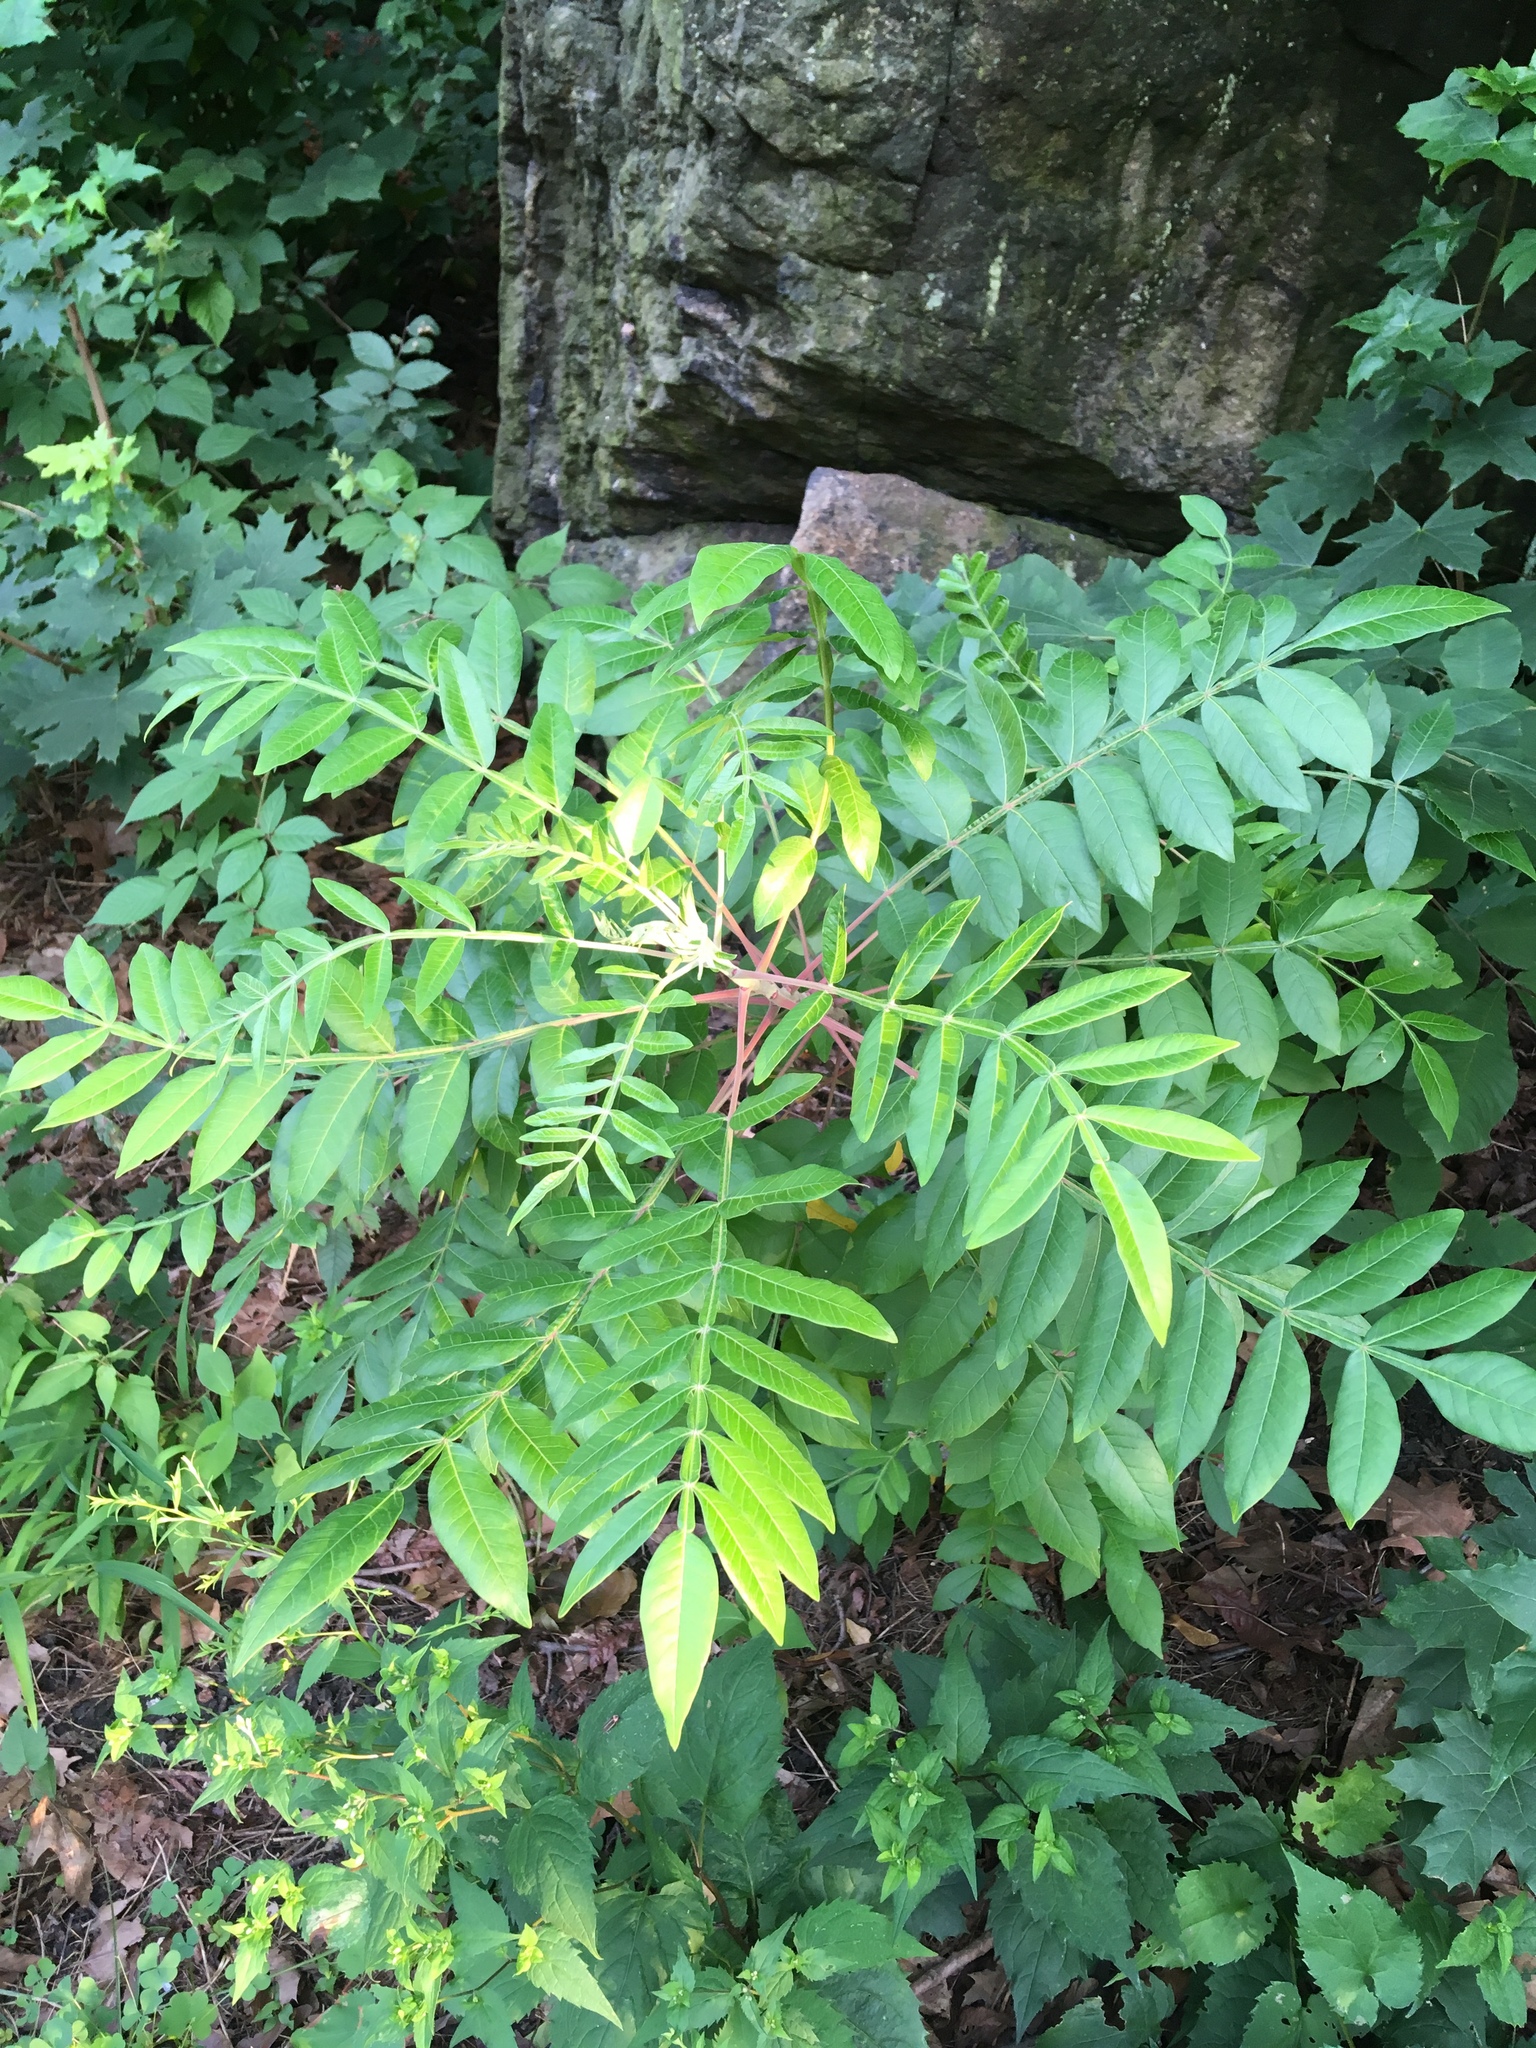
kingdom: Plantae
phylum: Tracheophyta
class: Magnoliopsida
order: Sapindales
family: Anacardiaceae
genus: Rhus
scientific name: Rhus copallina
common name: Shining sumac
